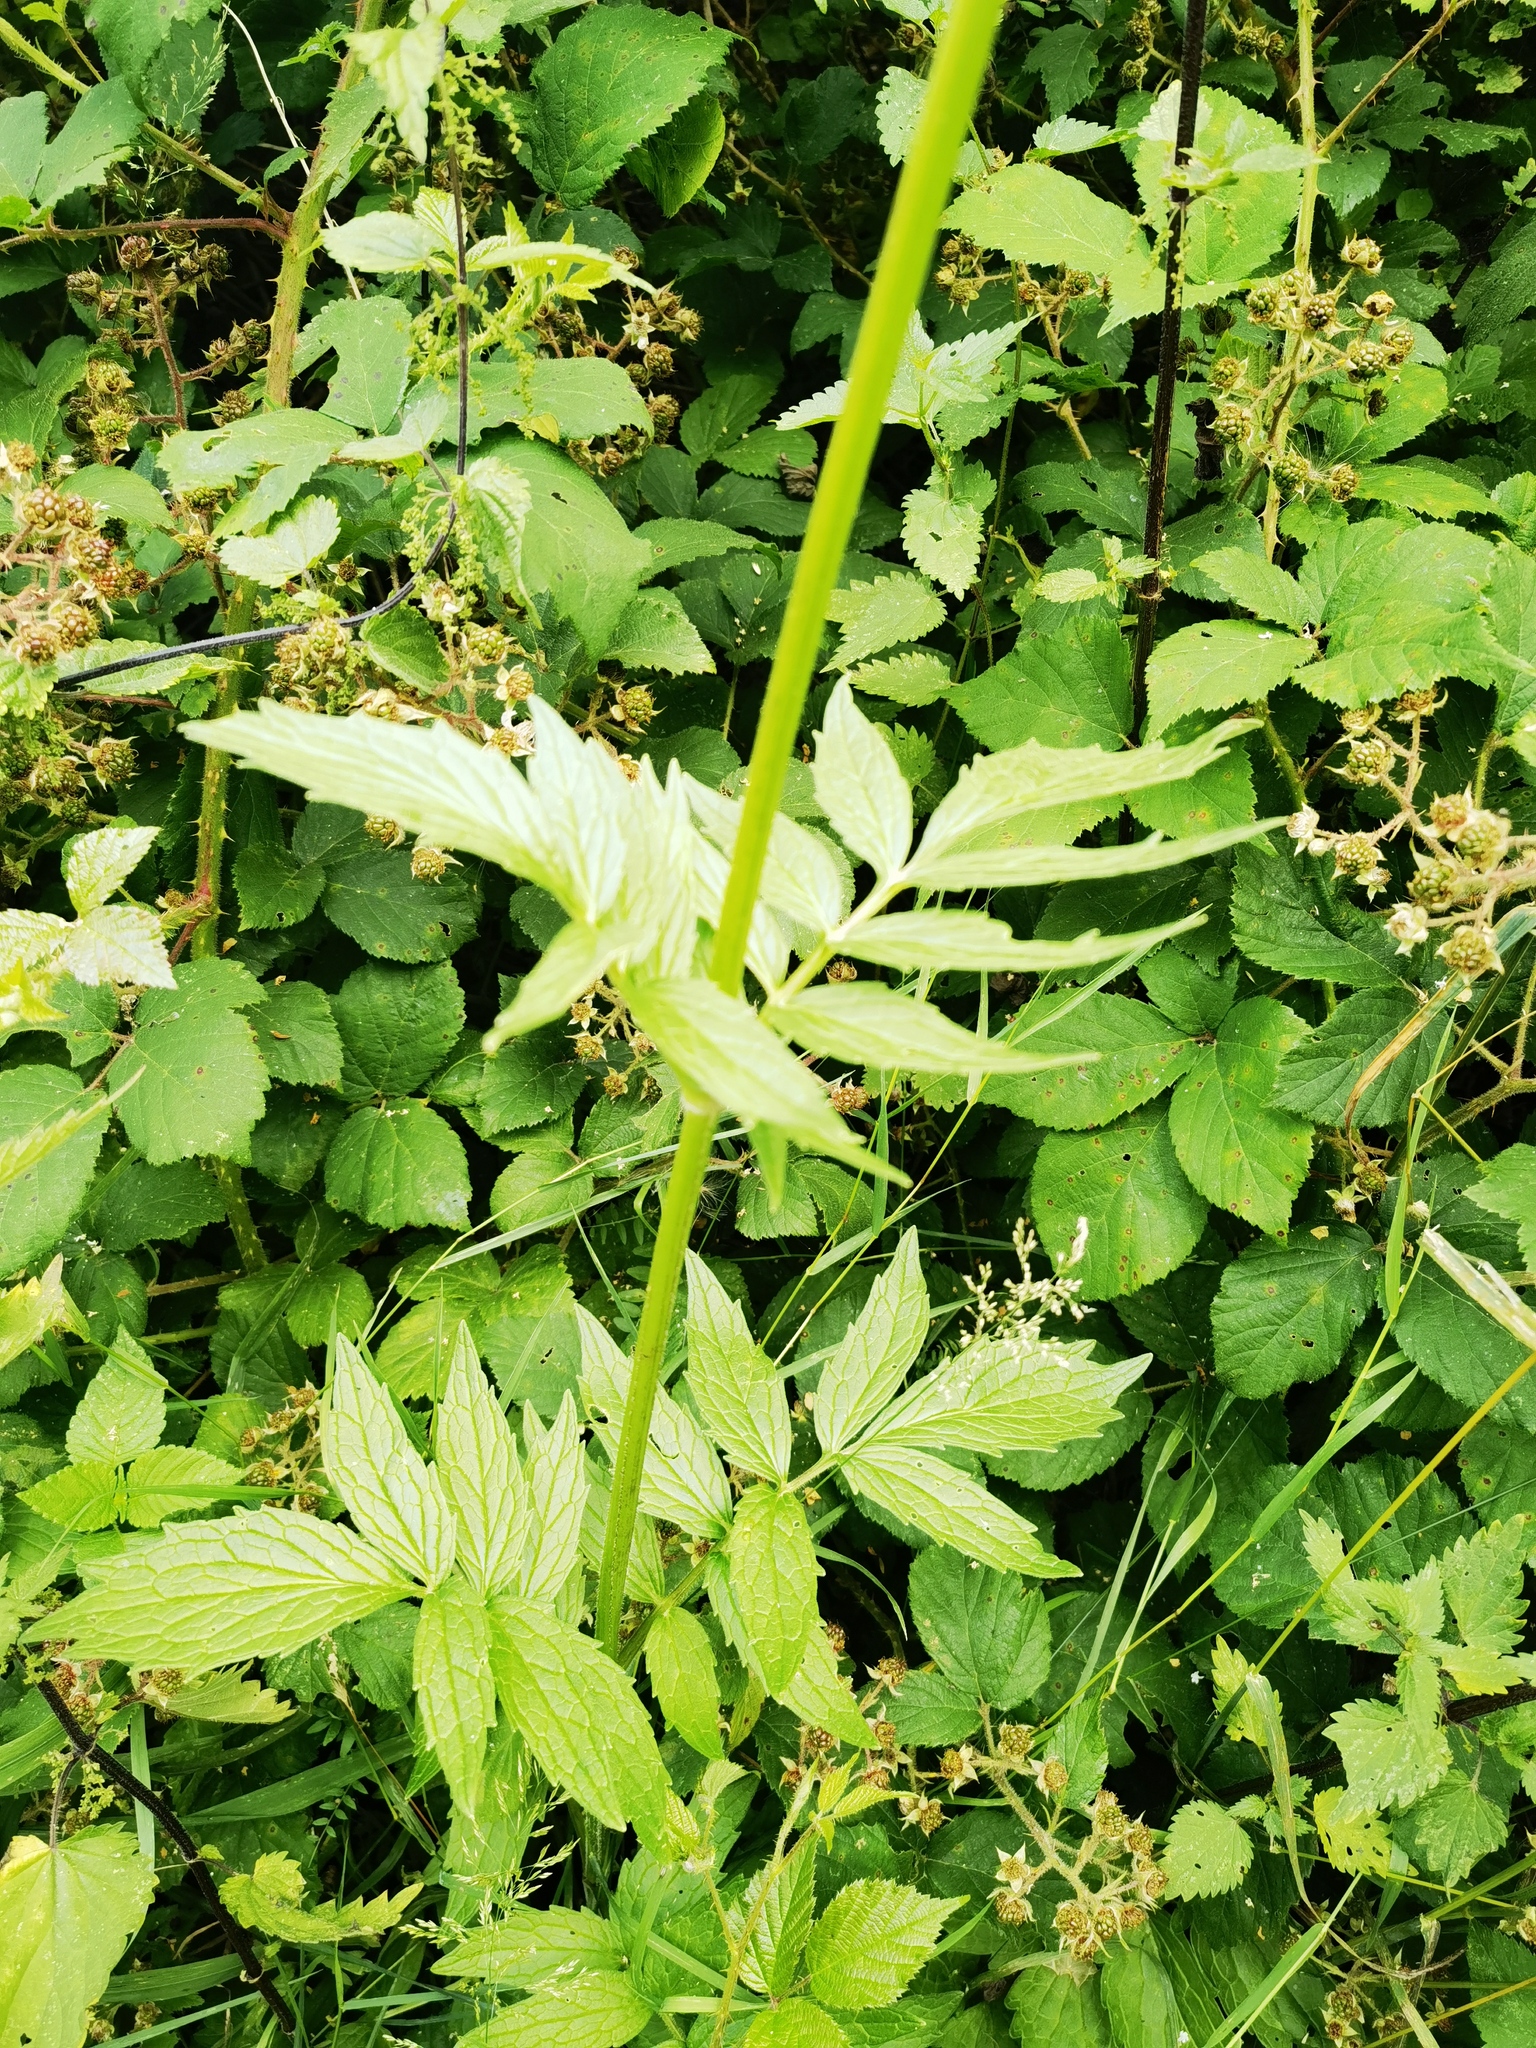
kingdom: Plantae
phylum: Tracheophyta
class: Magnoliopsida
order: Dipsacales
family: Caprifoliaceae
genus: Valeriana
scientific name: Valeriana officinalis
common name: Common valerian
